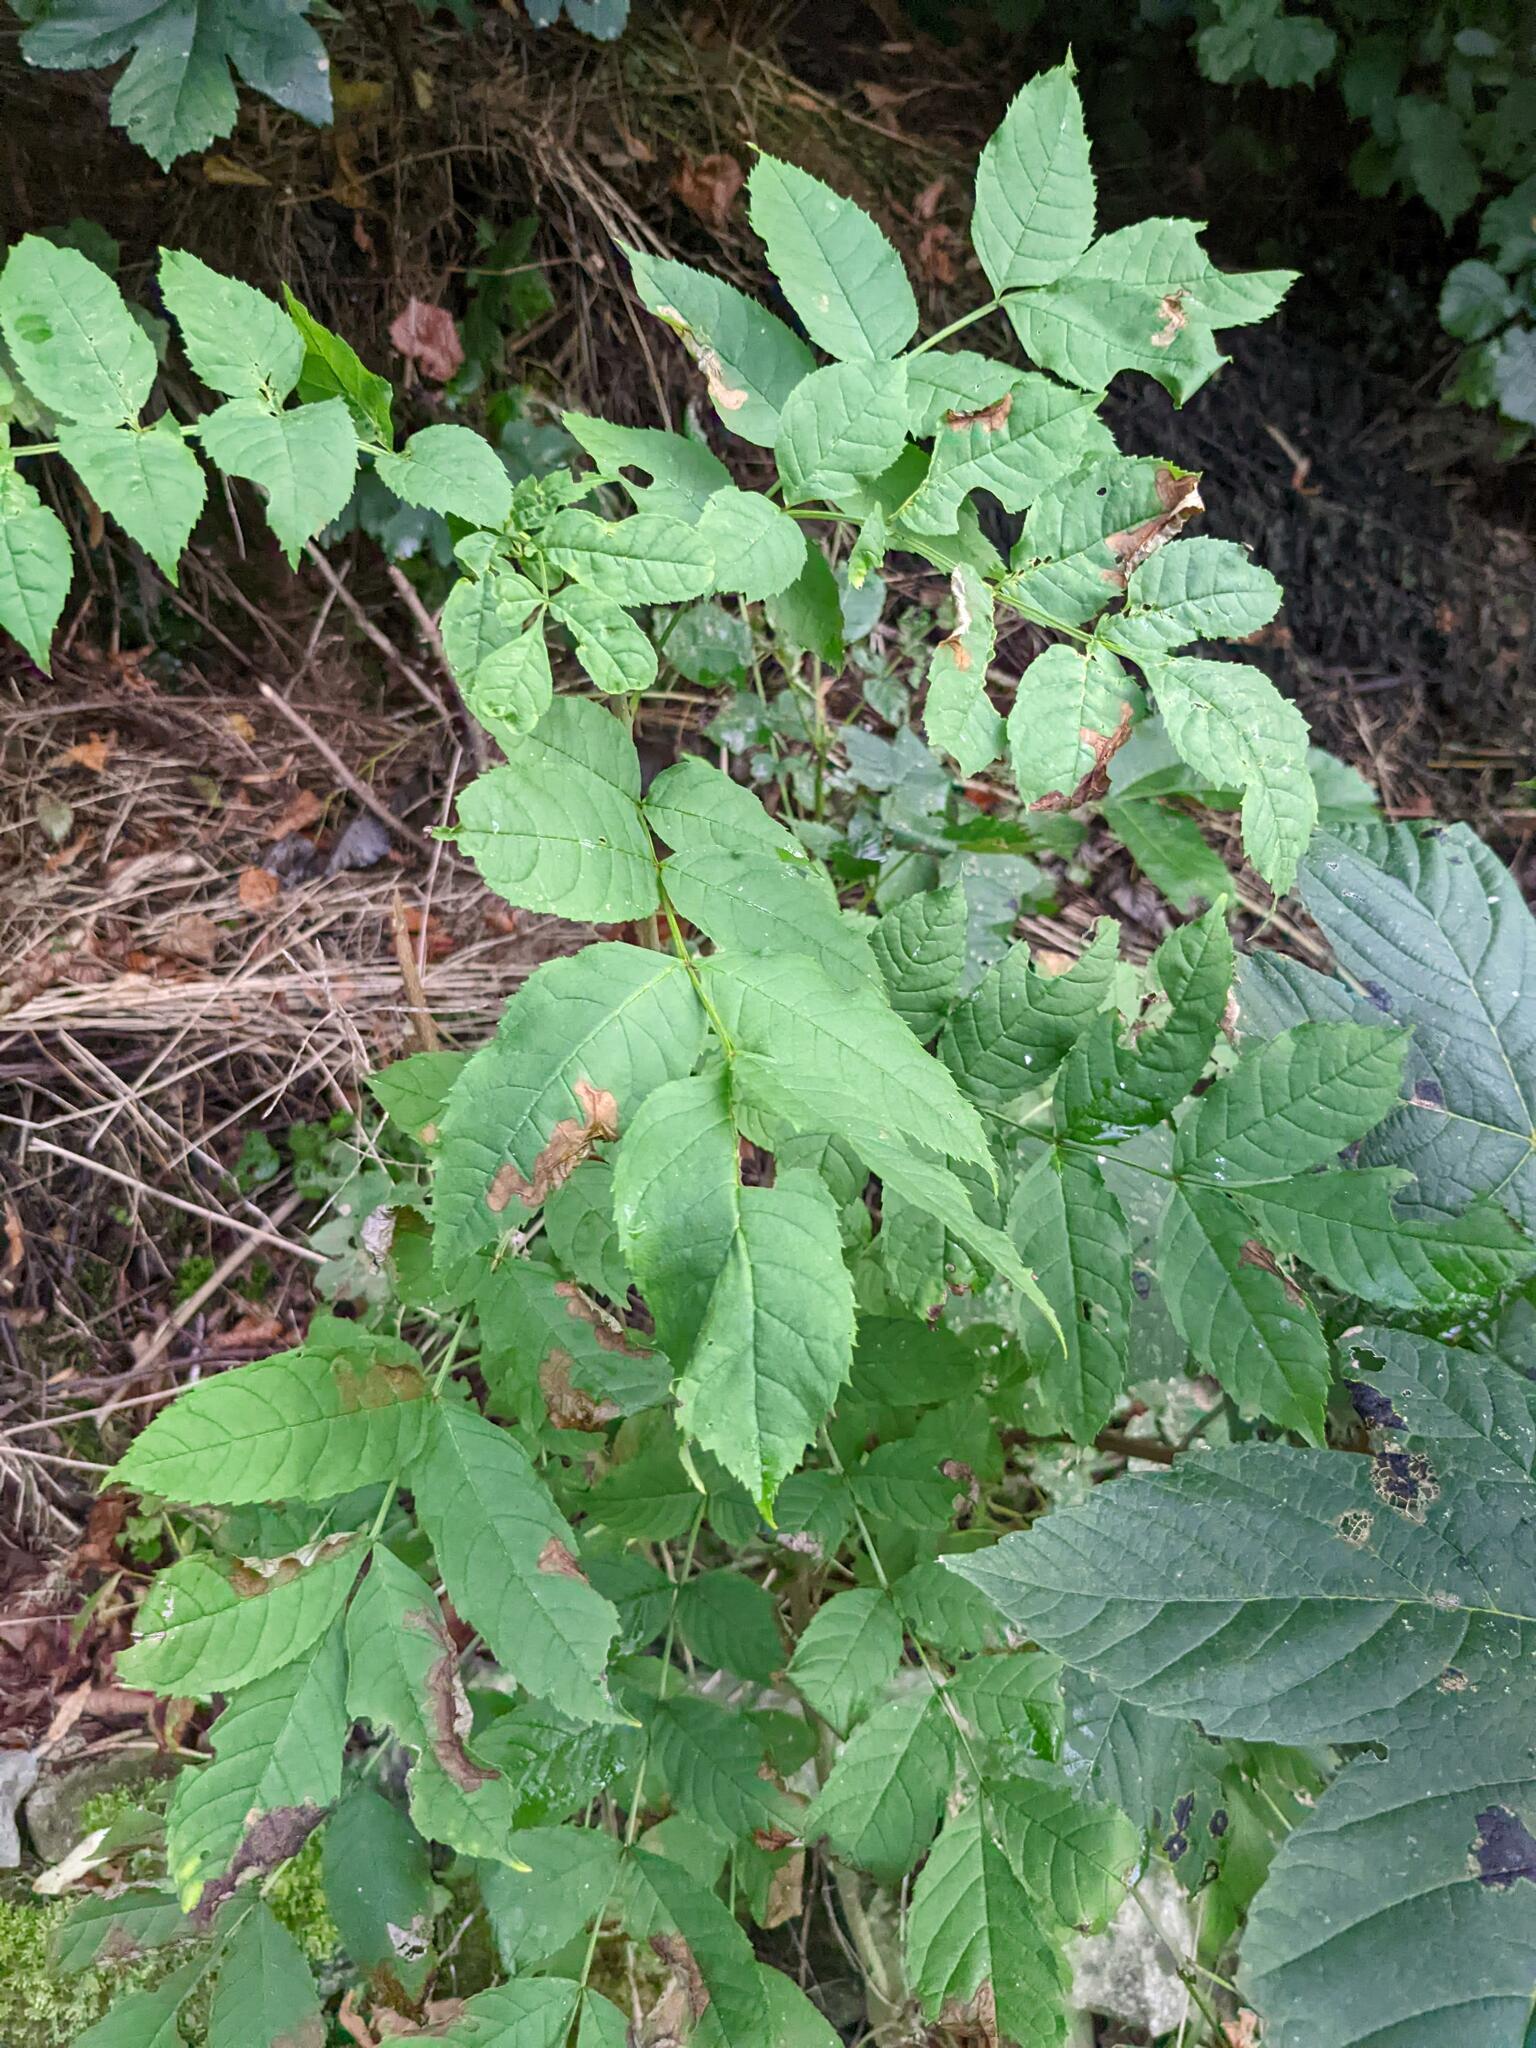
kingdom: Plantae
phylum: Tracheophyta
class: Magnoliopsida
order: Lamiales
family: Oleaceae
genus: Fraxinus
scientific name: Fraxinus excelsior
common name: European ash
